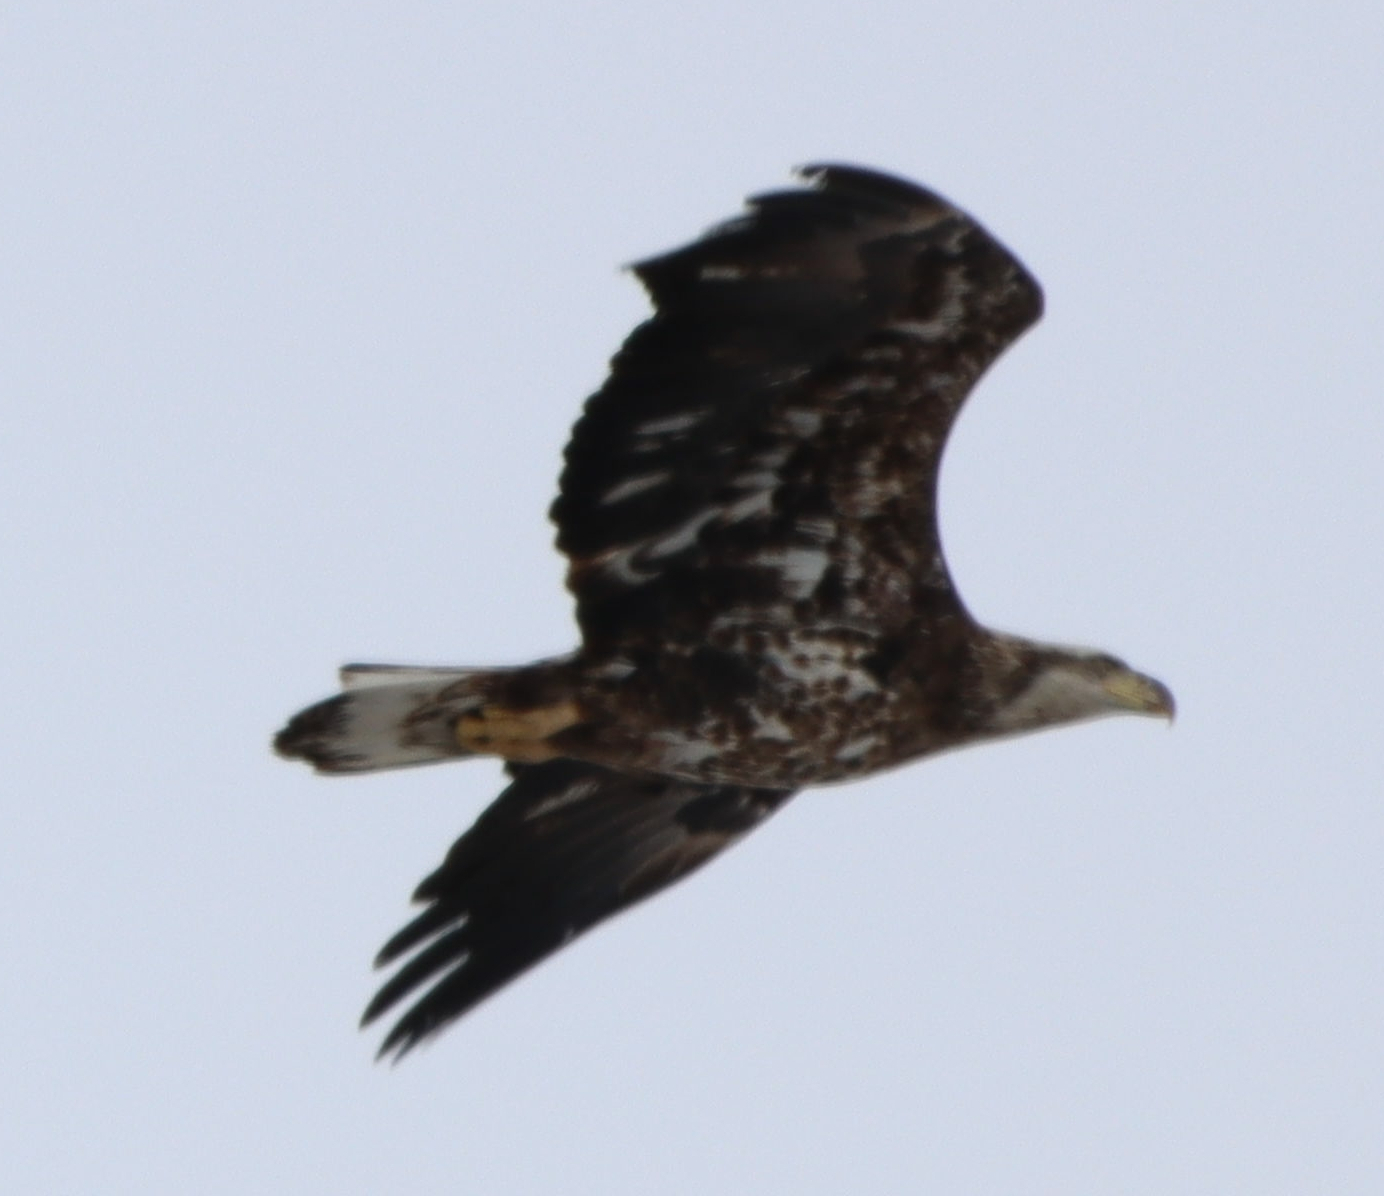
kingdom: Animalia
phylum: Chordata
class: Aves
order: Accipitriformes
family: Accipitridae
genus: Haliaeetus
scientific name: Haliaeetus leucocephalus
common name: Bald eagle
